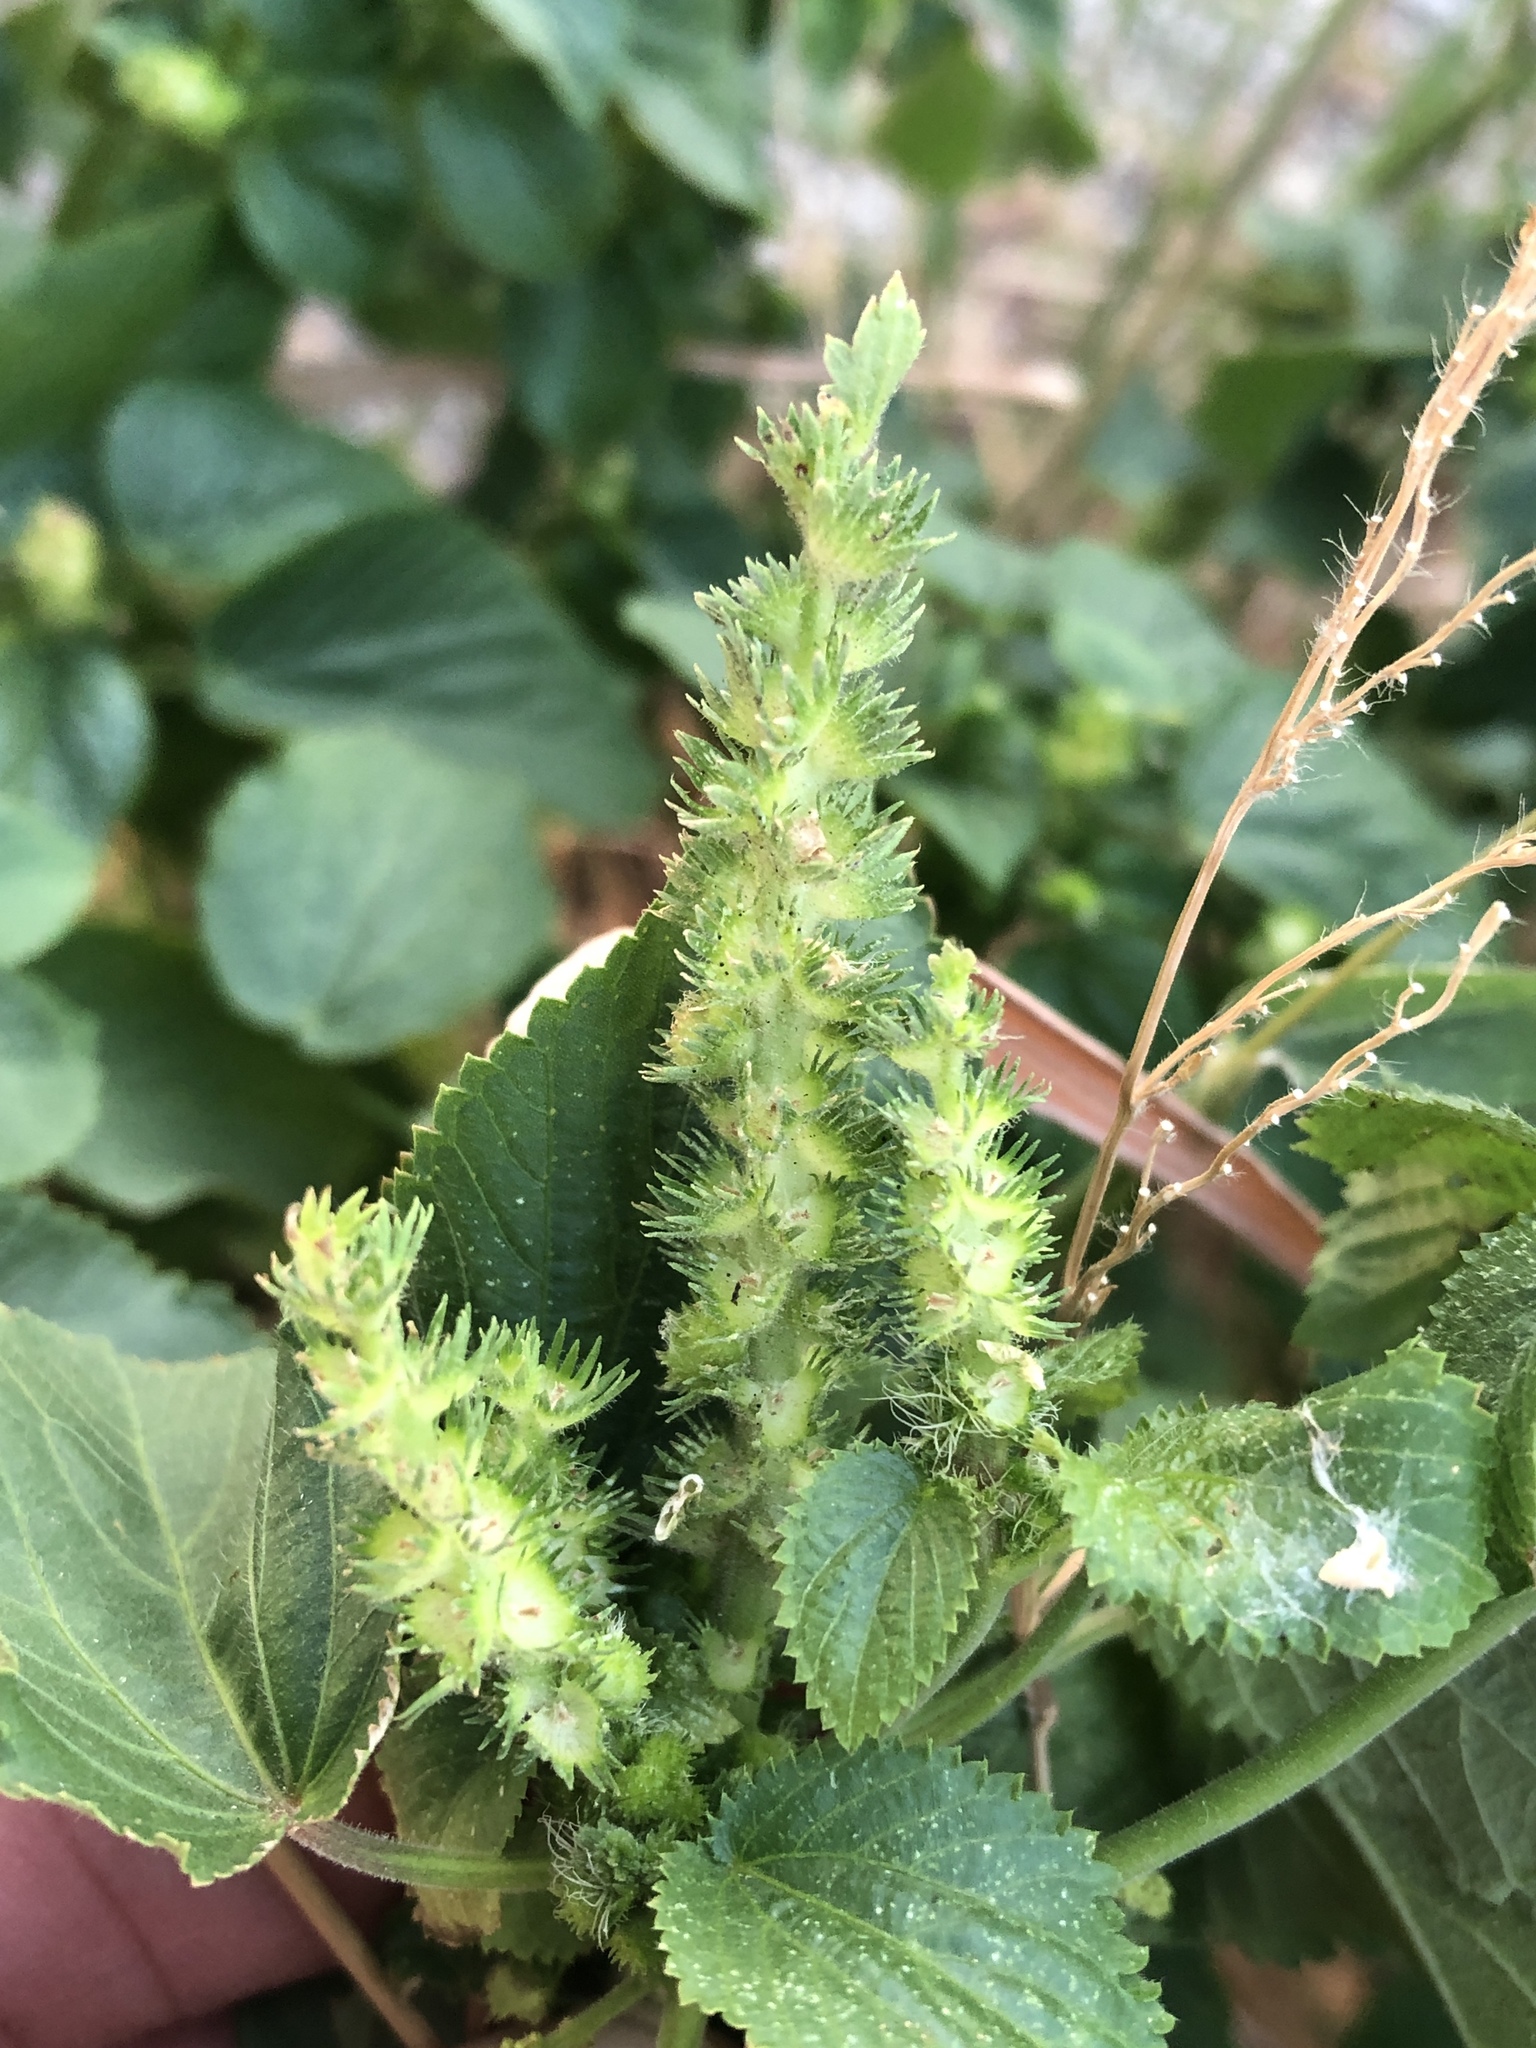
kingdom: Plantae
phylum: Tracheophyta
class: Magnoliopsida
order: Malpighiales
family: Euphorbiaceae
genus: Acalypha
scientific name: Acalypha ostryifolia
